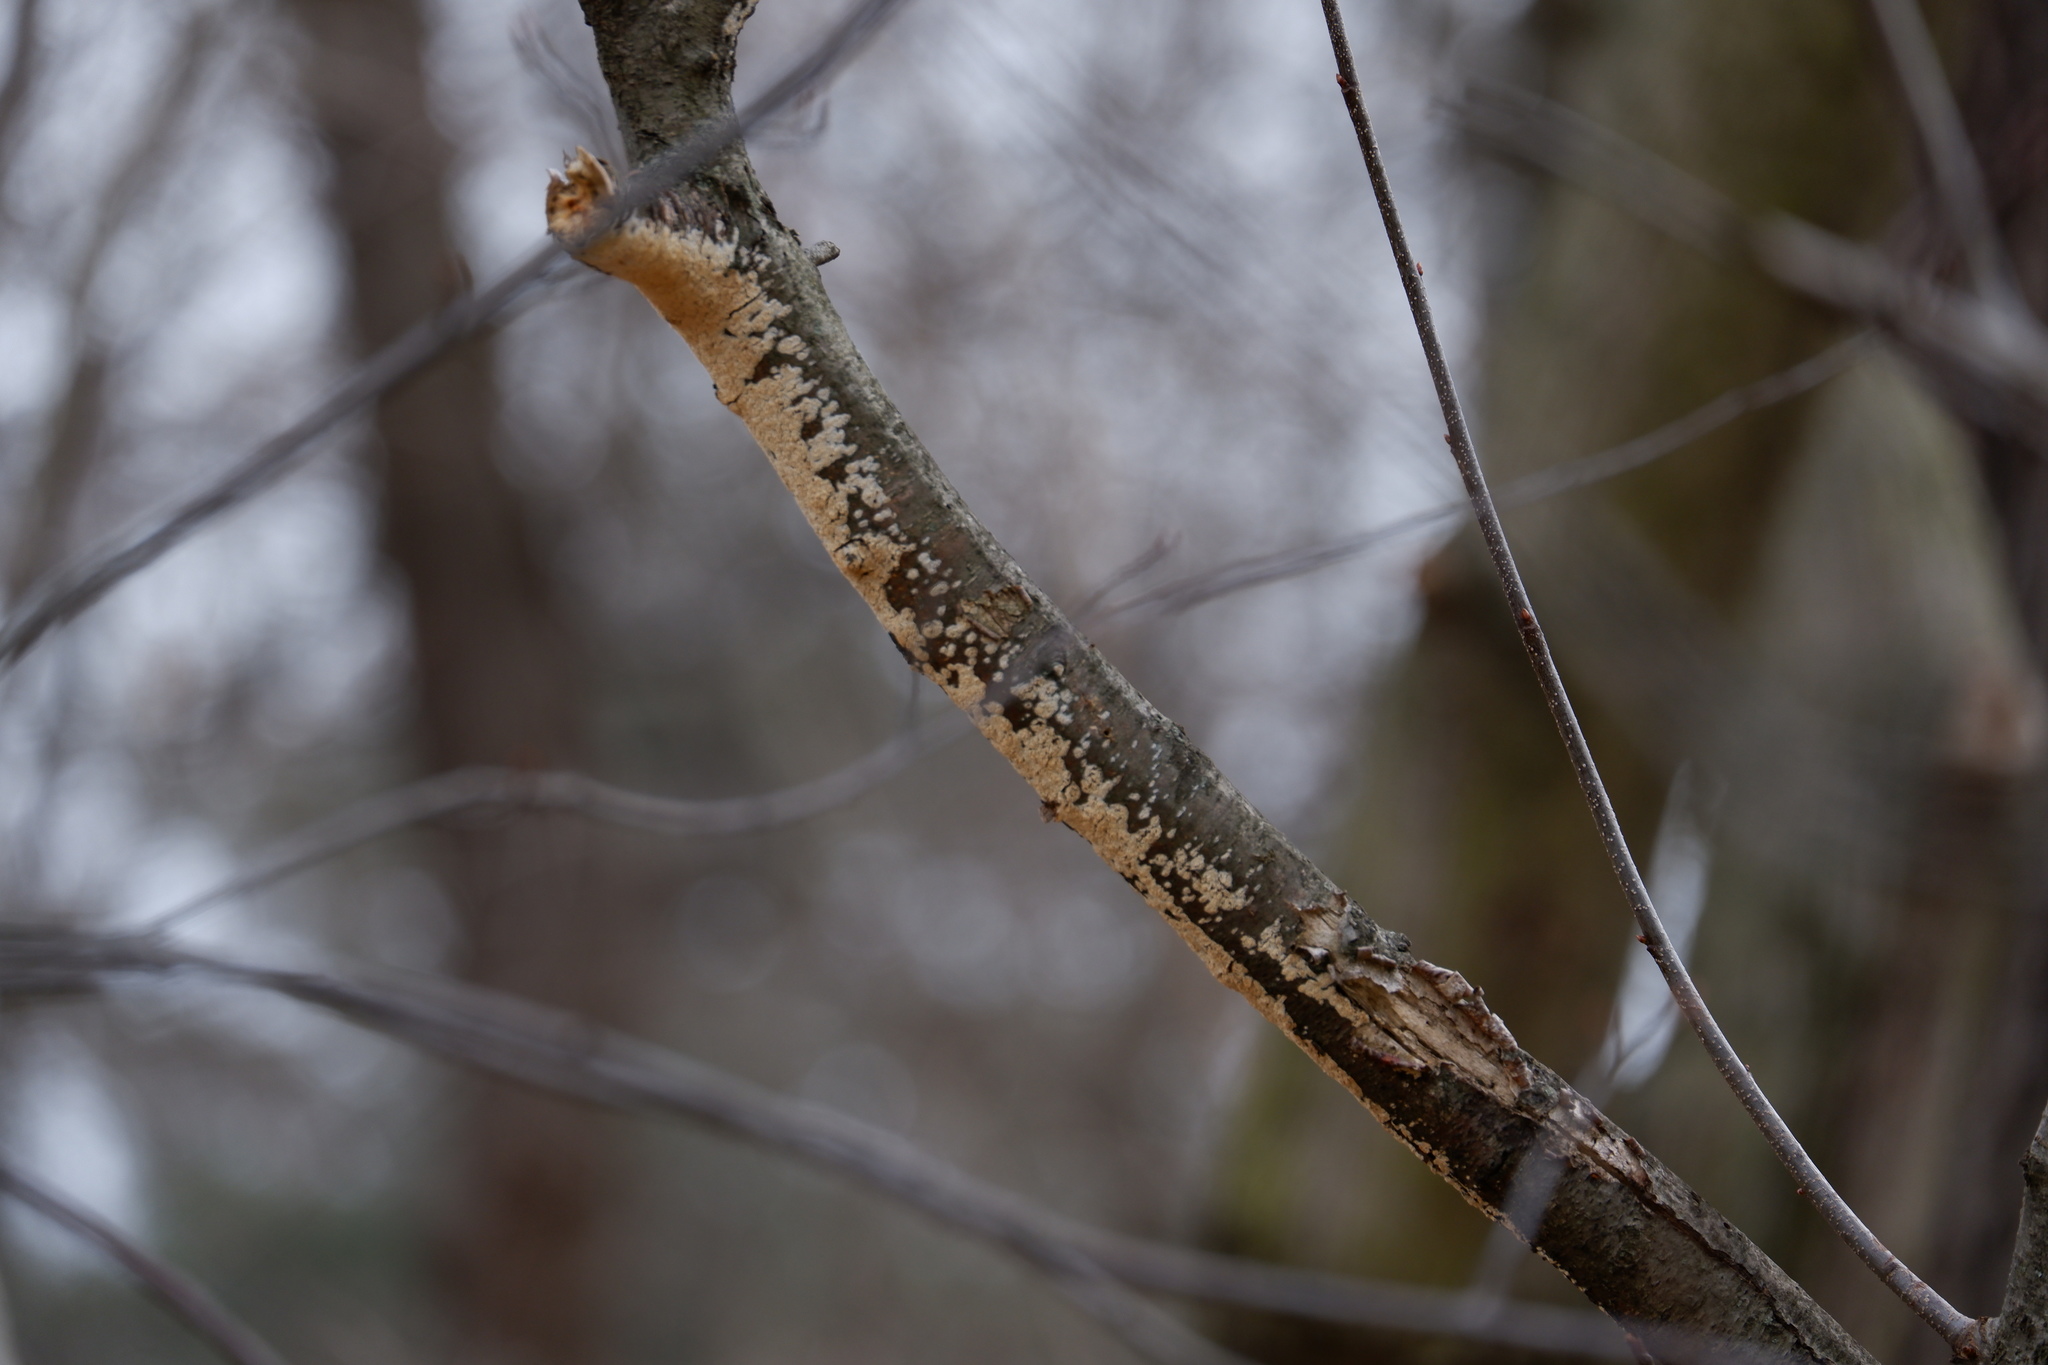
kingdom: Fungi
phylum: Basidiomycota
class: Agaricomycetes
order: Polyporales
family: Irpicaceae
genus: Irpex
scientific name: Irpex lacteus
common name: Milk-white toothed polypore
